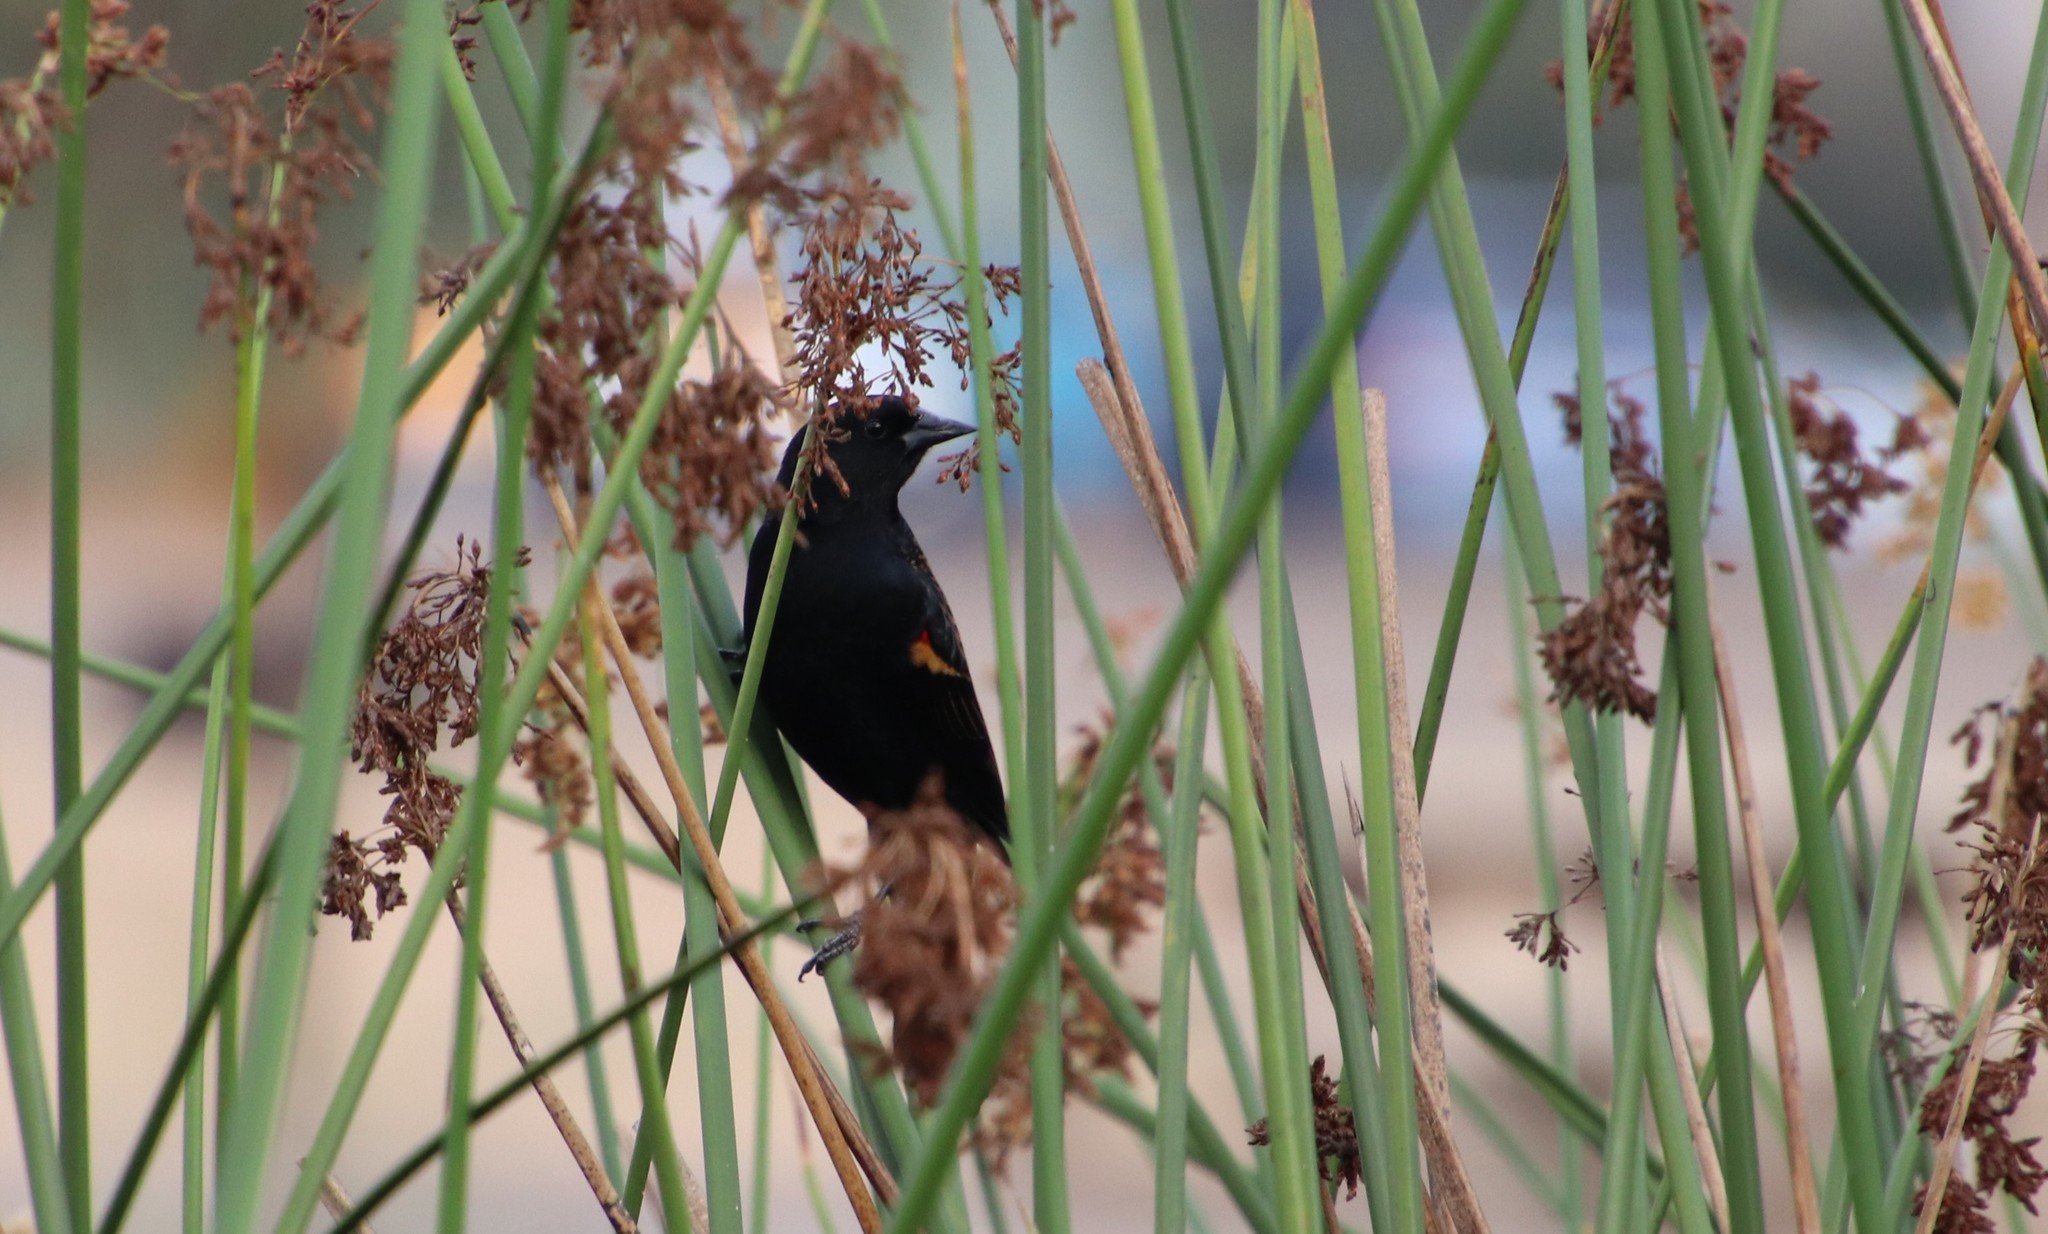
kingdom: Animalia
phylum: Chordata
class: Aves
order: Passeriformes
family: Icteridae
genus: Agelaius
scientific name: Agelaius phoeniceus
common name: Red-winged blackbird
